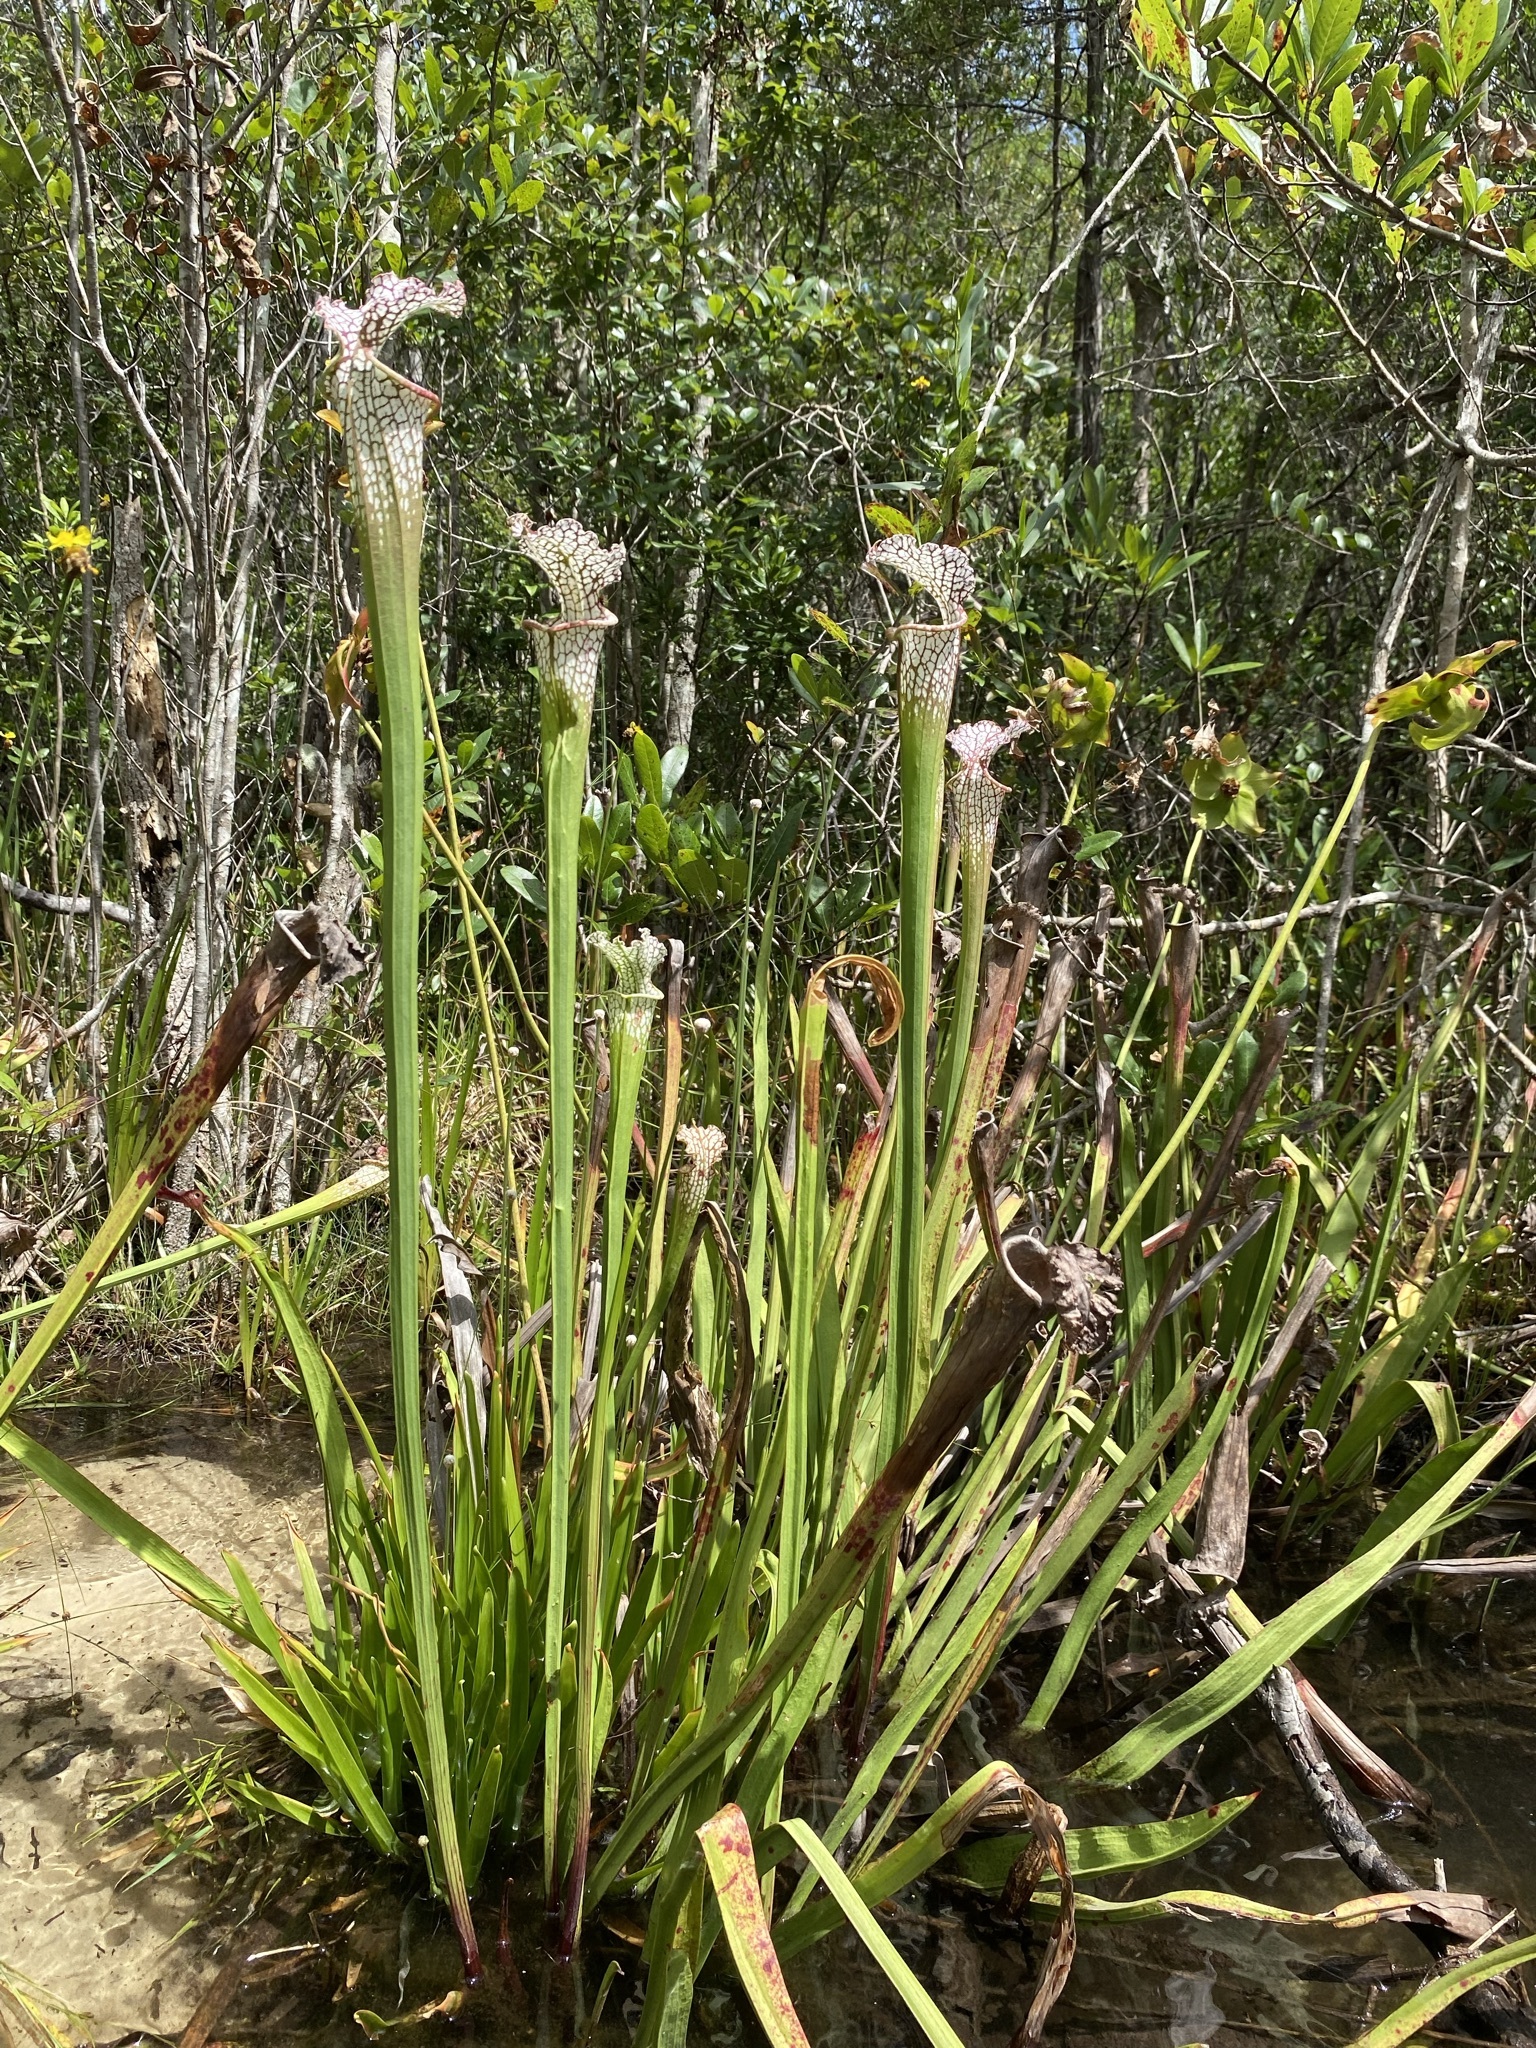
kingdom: Plantae
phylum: Tracheophyta
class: Magnoliopsida
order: Ericales
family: Sarraceniaceae
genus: Sarracenia
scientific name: Sarracenia leucophylla
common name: Purple trumpetleaf
